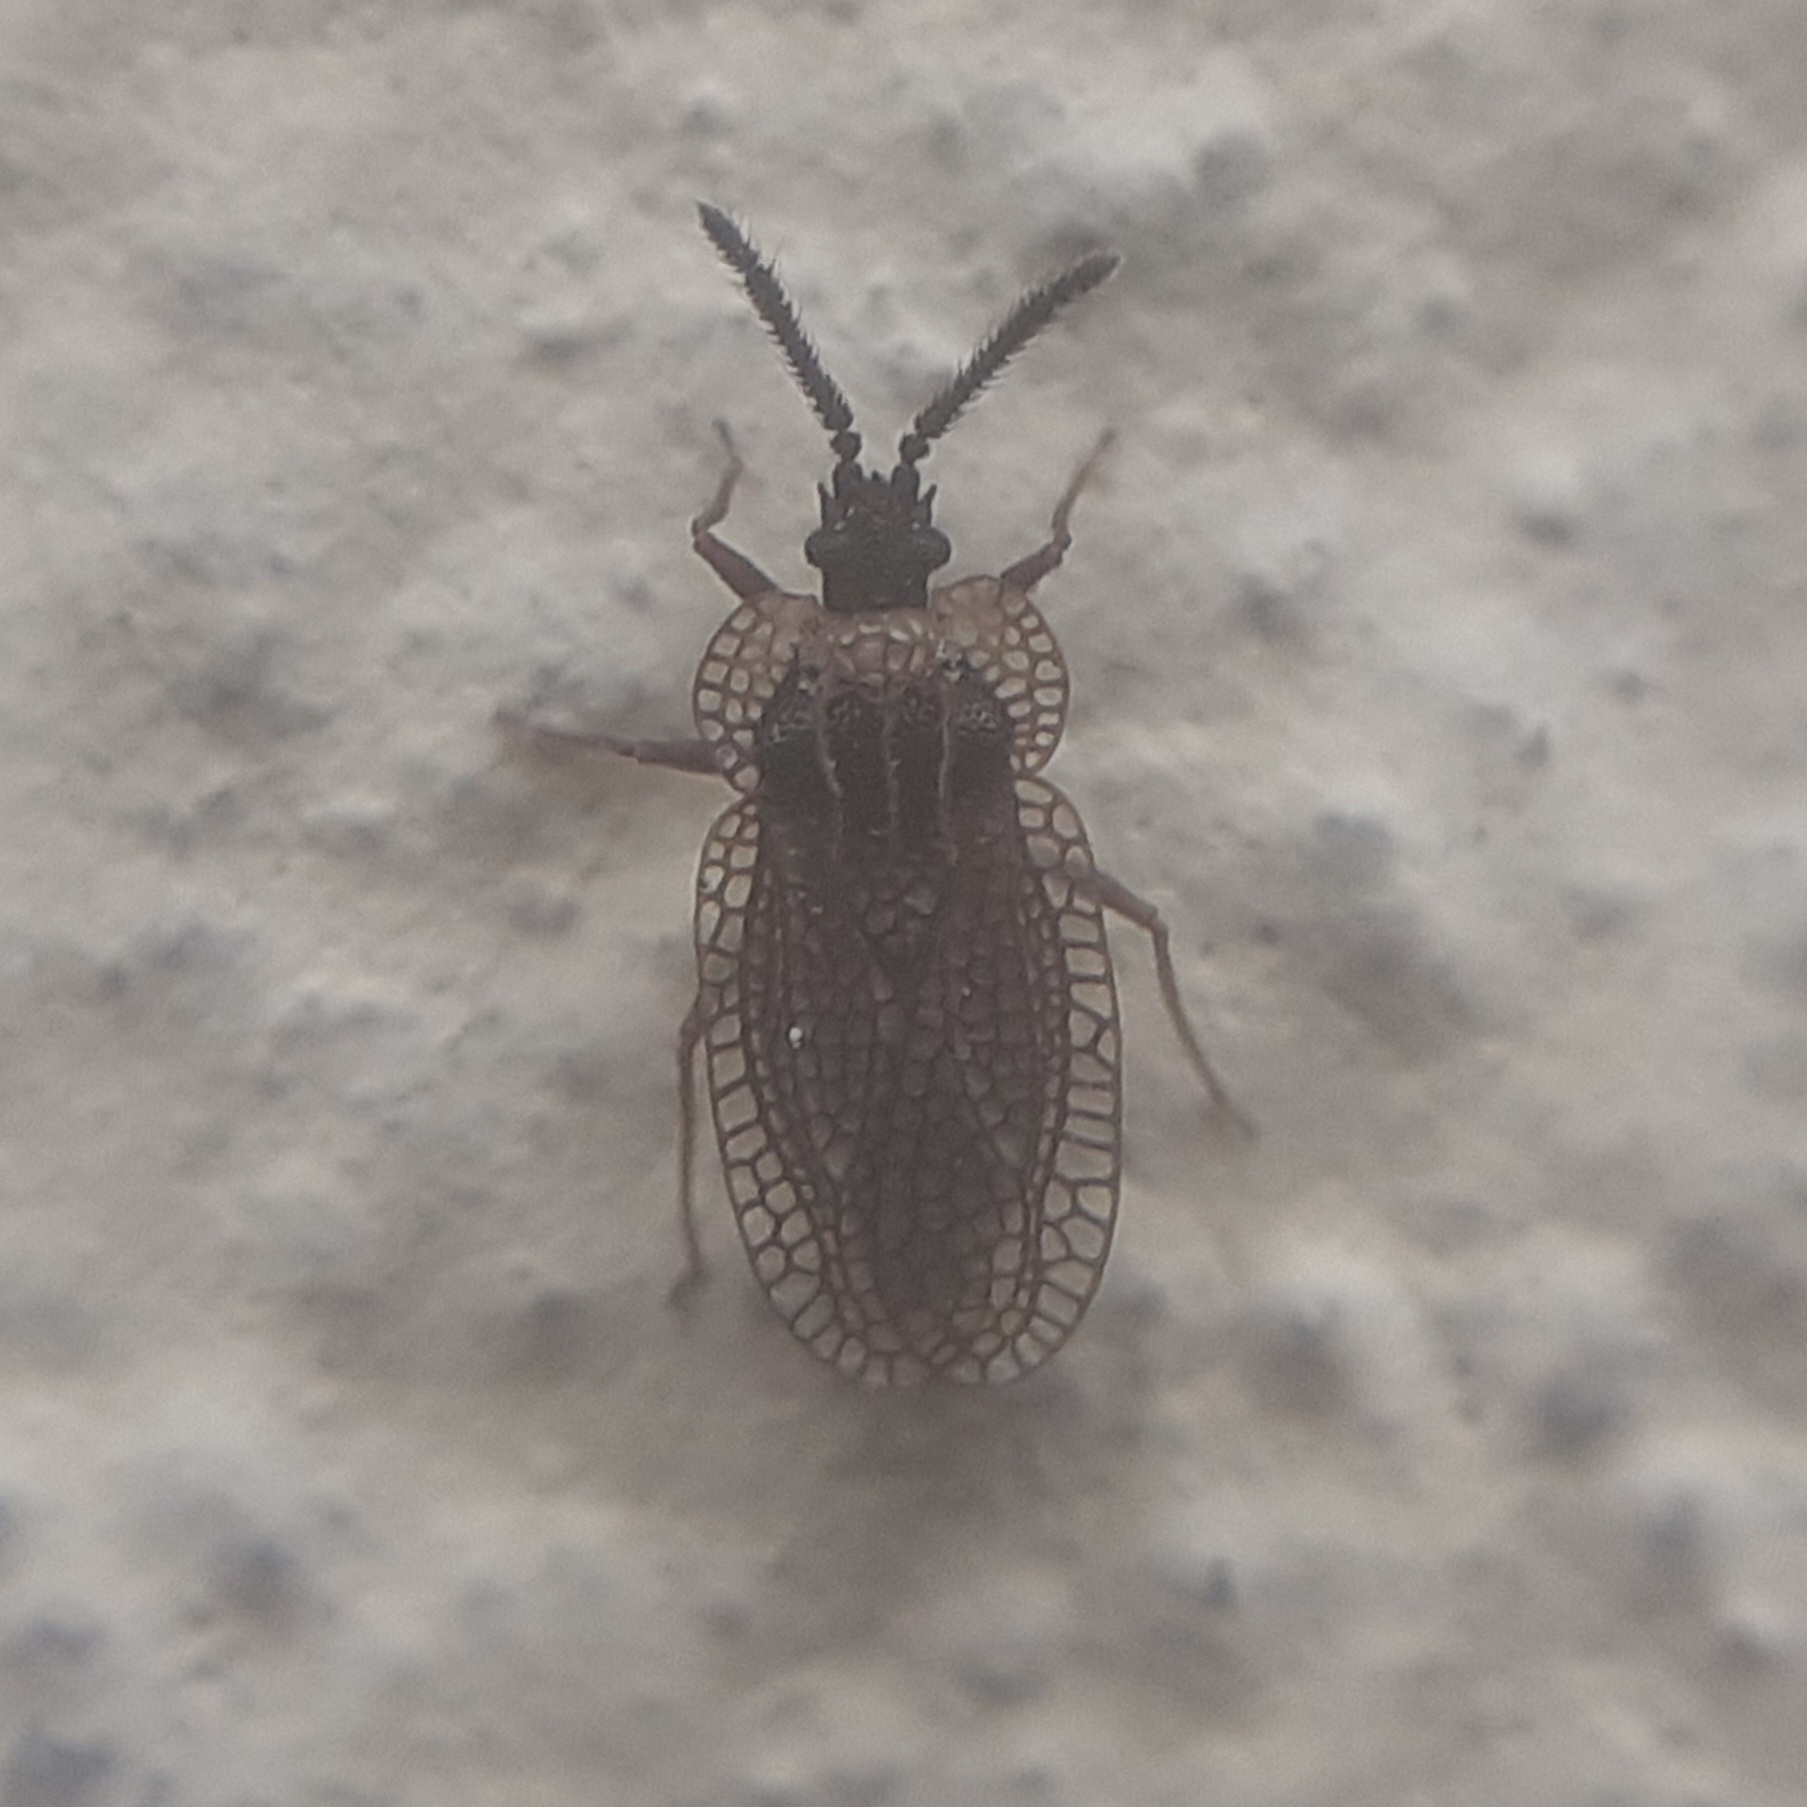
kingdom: Animalia
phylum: Arthropoda
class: Insecta
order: Hemiptera
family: Tingidae
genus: Dictyonota
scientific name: Dictyonota tricornis
